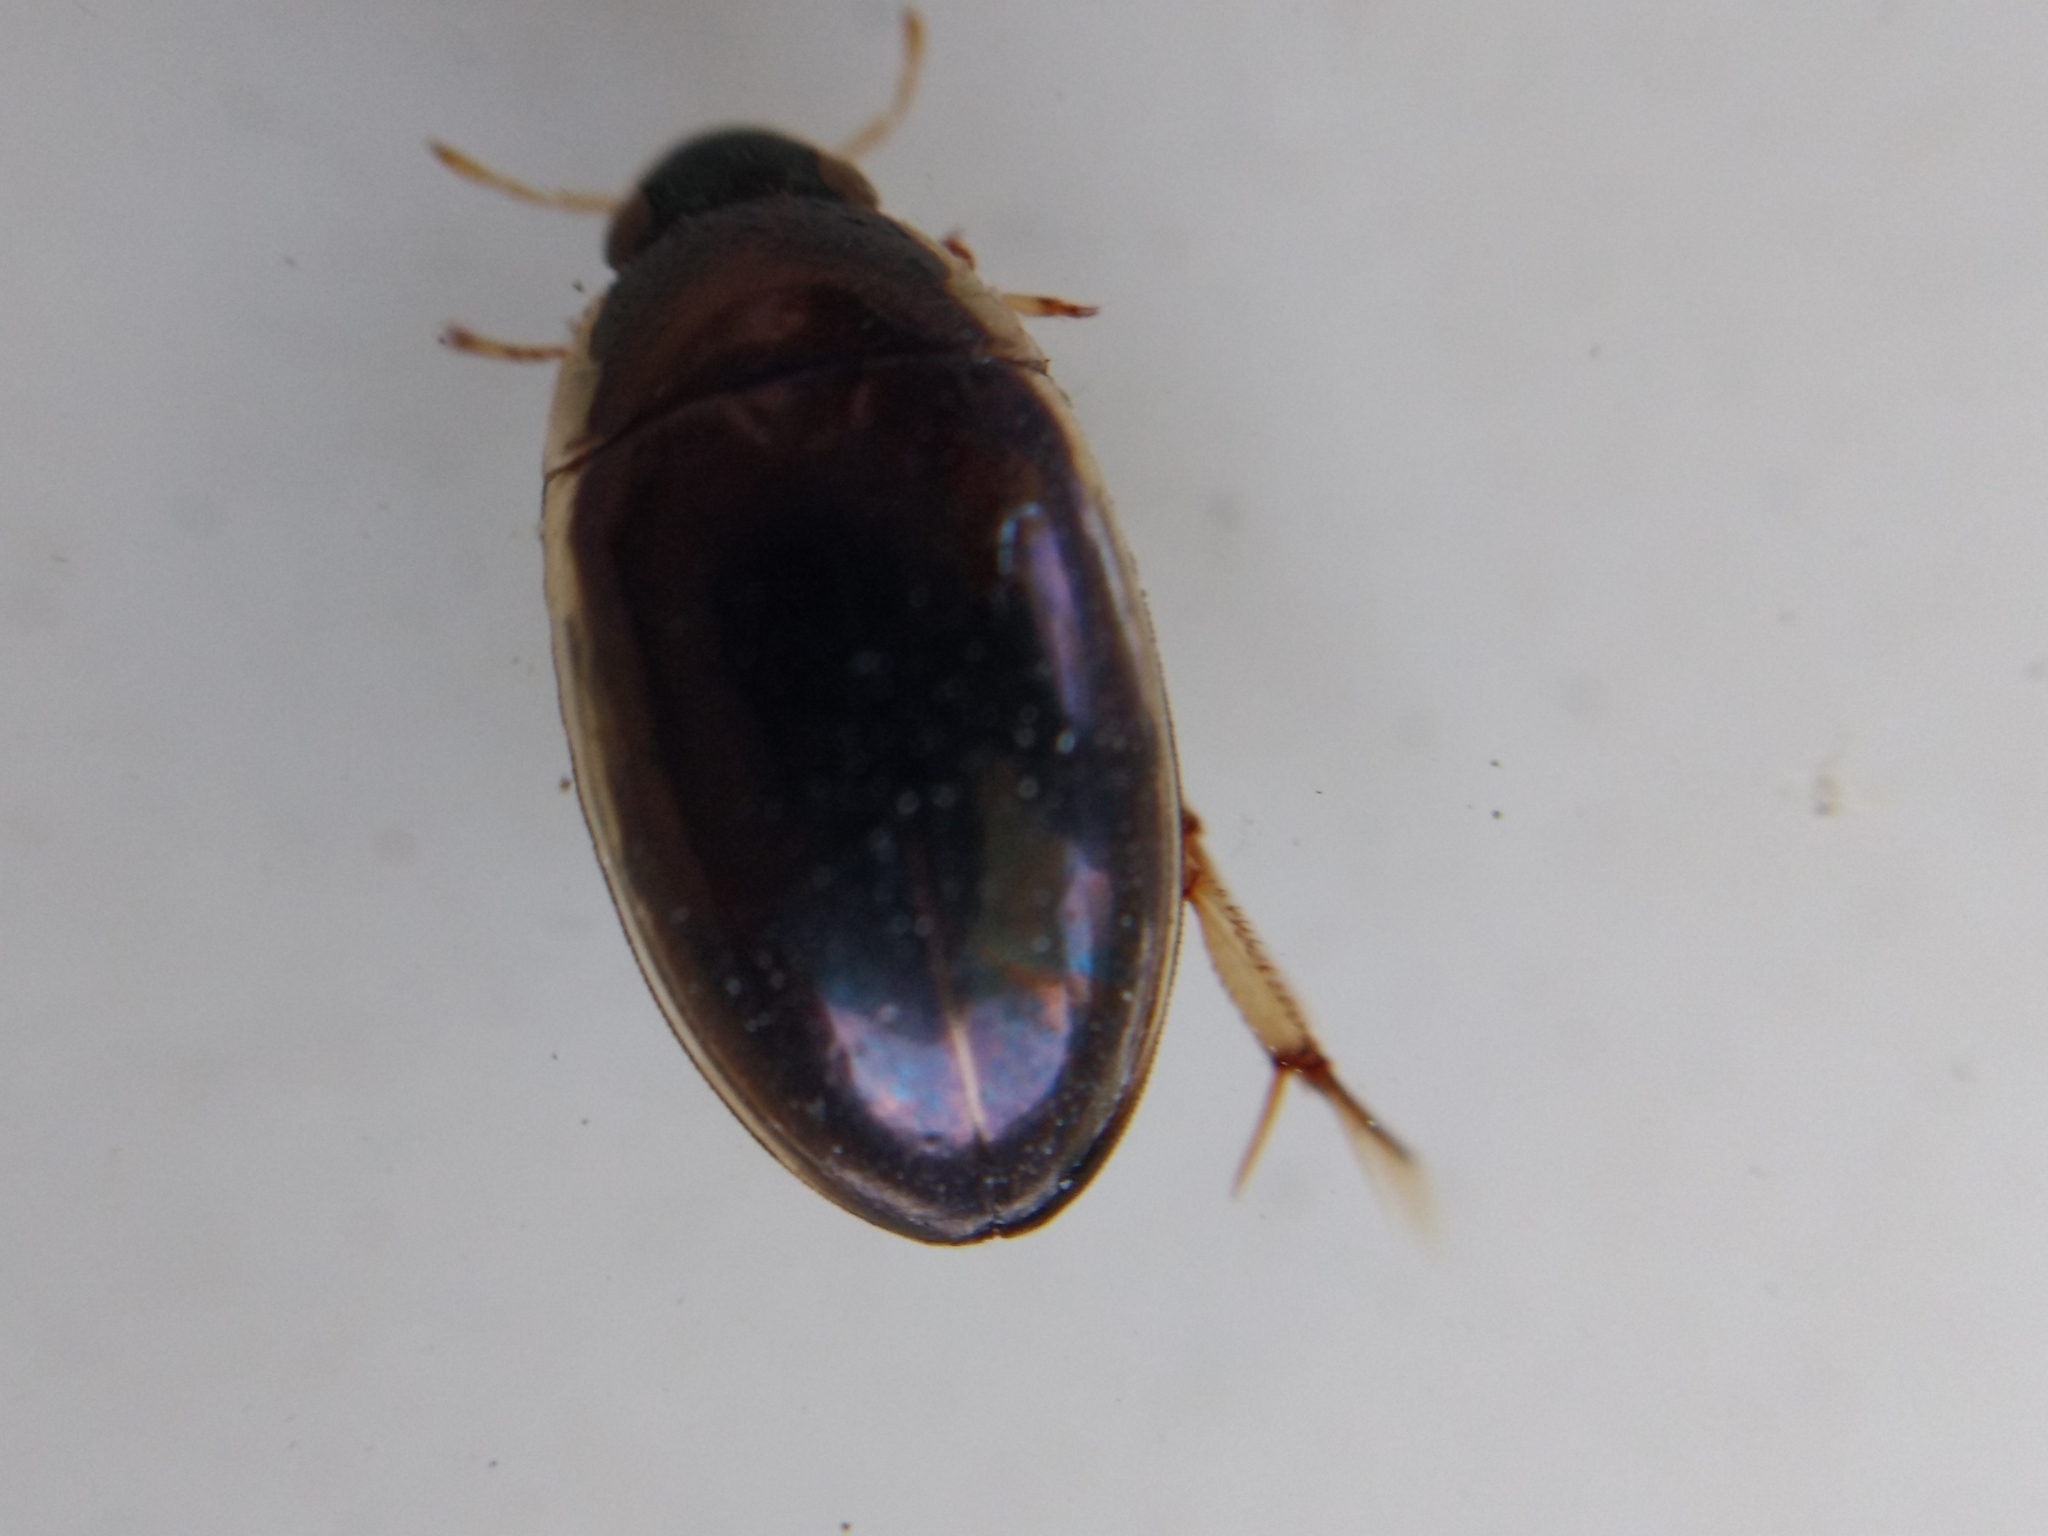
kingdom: Animalia
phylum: Arthropoda
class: Insecta
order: Coleoptera
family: Hydrophilidae
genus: Tropisternus
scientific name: Tropisternus lateralis
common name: Lateral-banded water scavenger beetle
